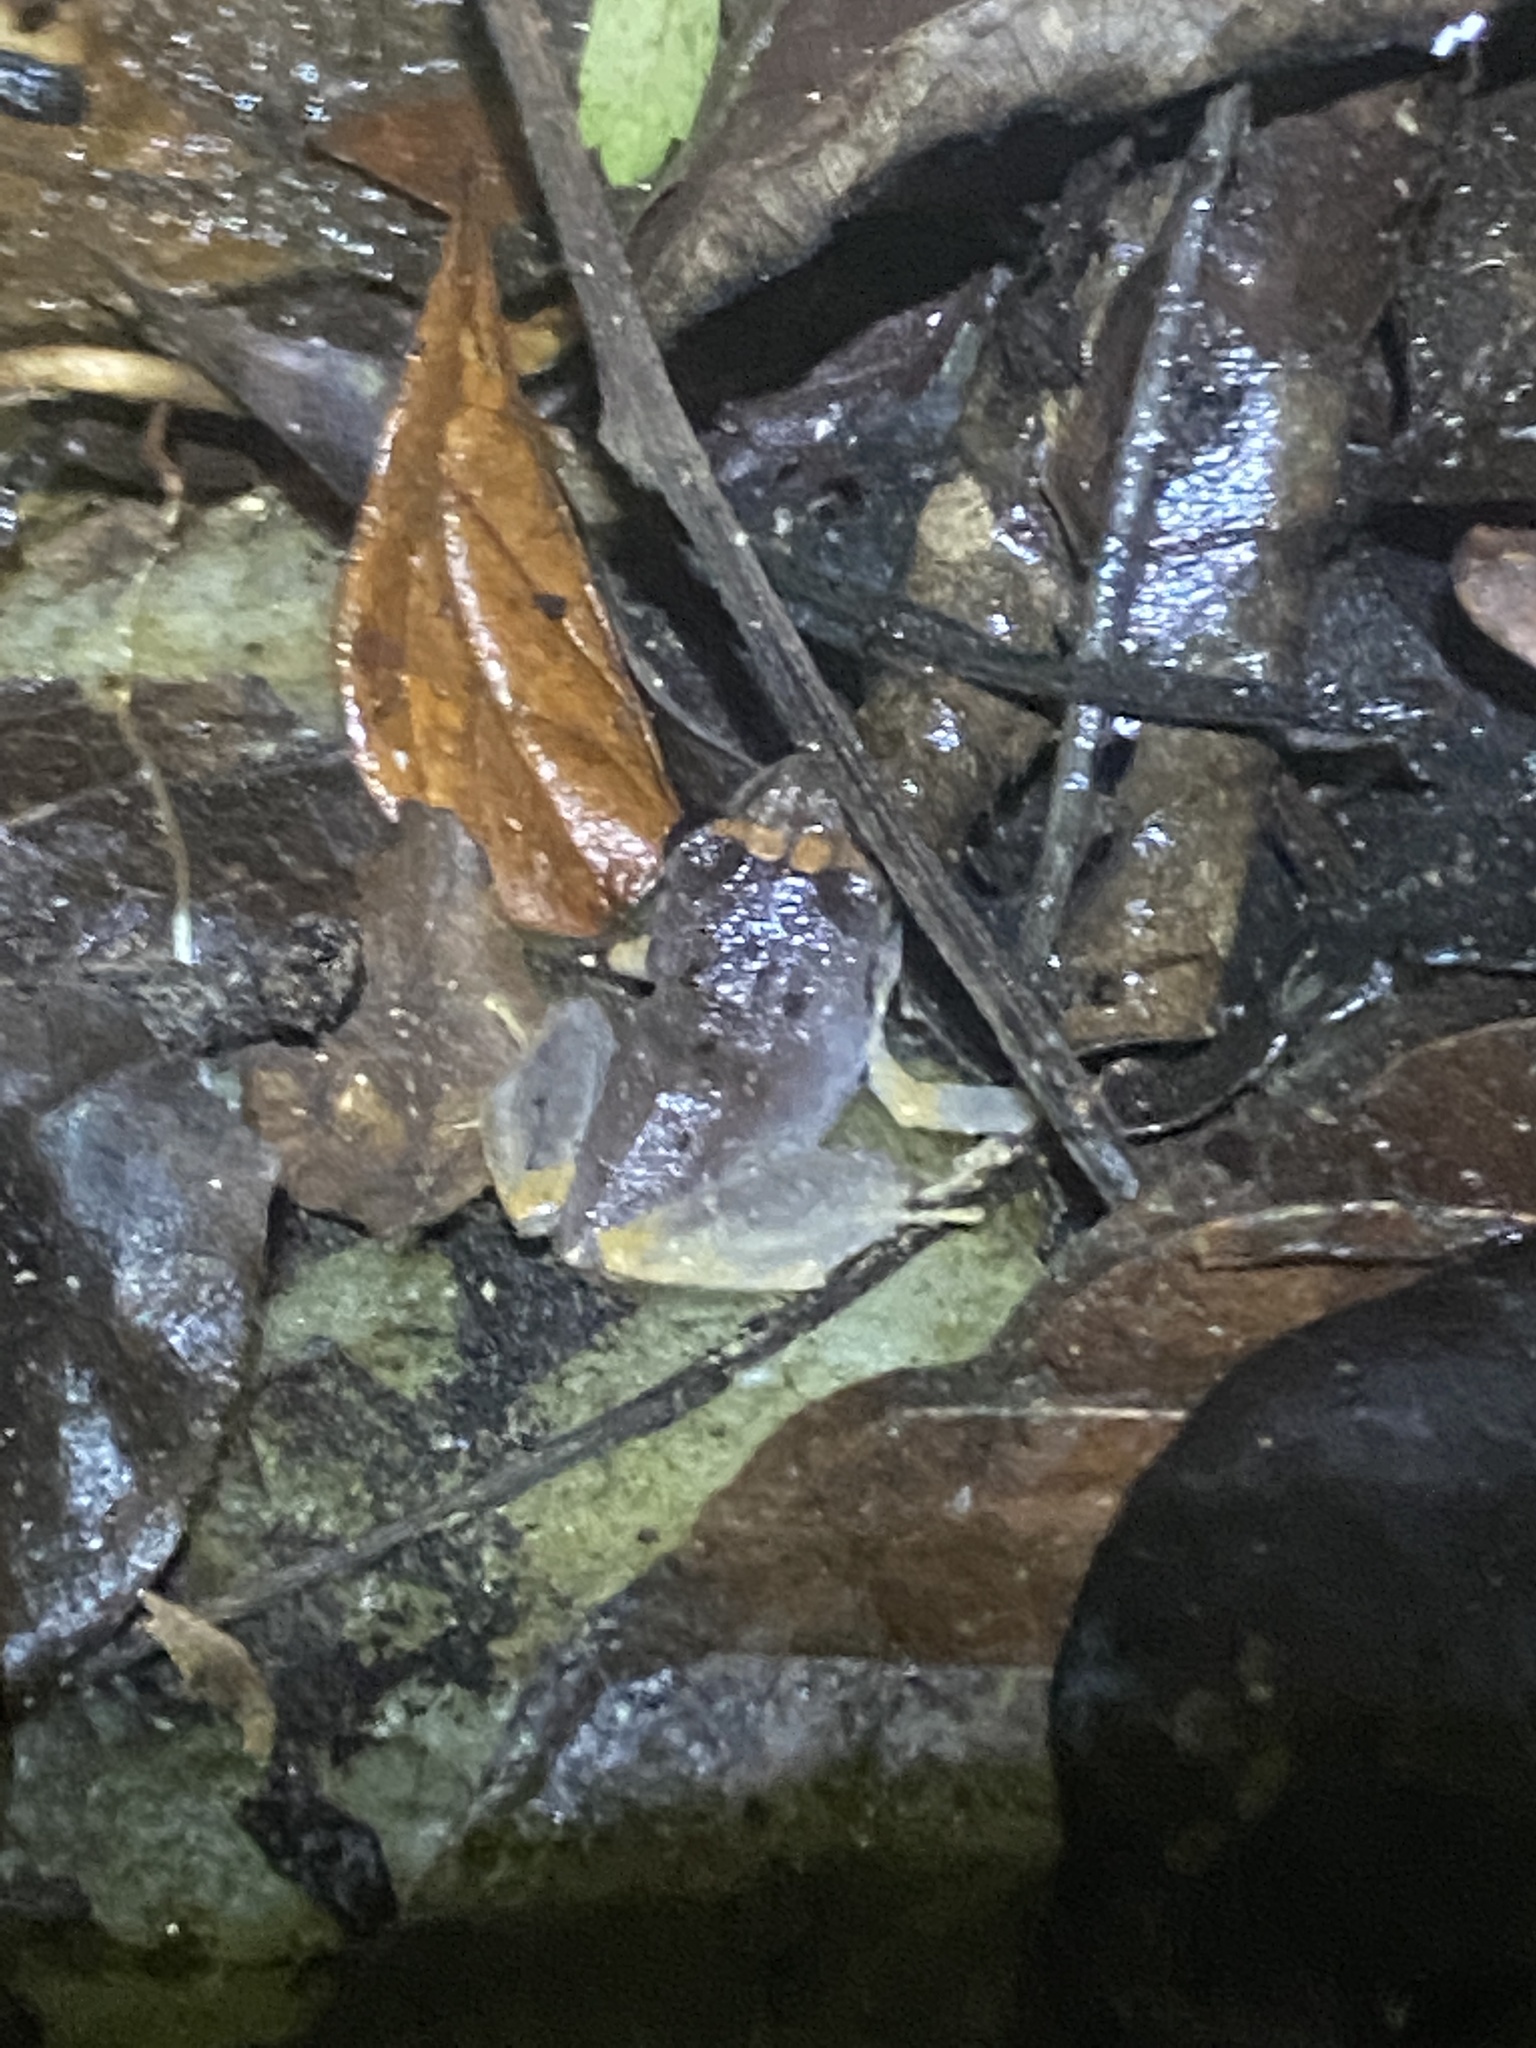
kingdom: Animalia
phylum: Chordata
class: Amphibia
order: Anura
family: Craugastoridae
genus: Pristimantis
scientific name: Pristimantis urichi
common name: Lesser antilles robber frog
